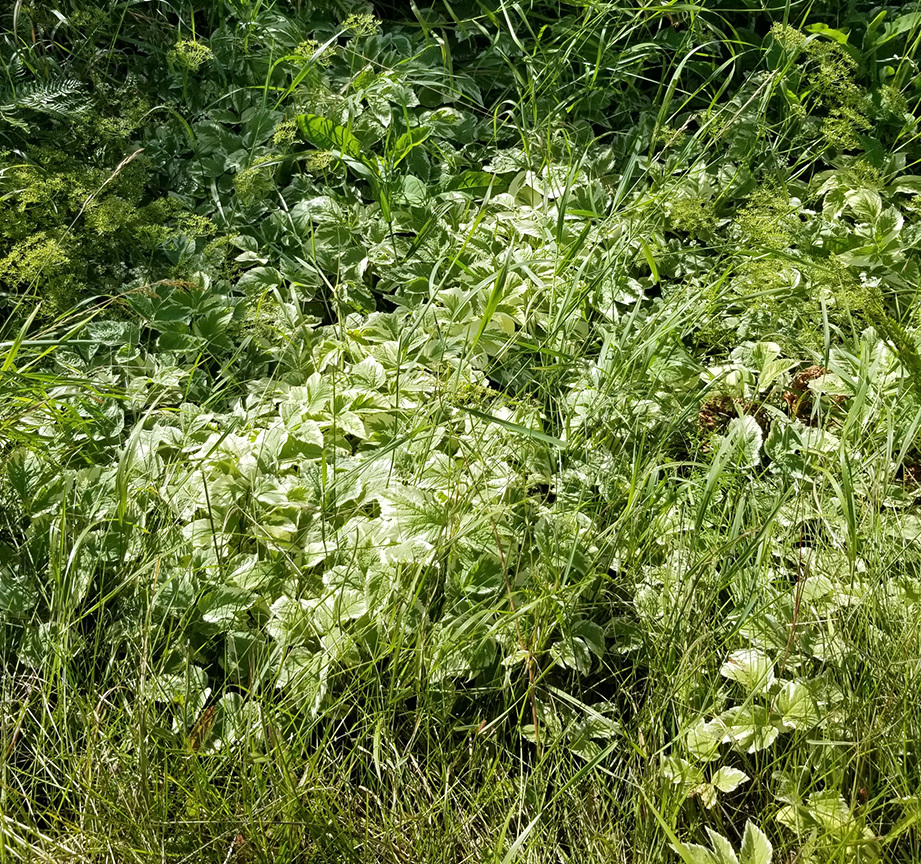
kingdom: Plantae
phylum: Tracheophyta
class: Magnoliopsida
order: Apiales
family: Apiaceae
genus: Aegopodium
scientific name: Aegopodium podagraria
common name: Ground-elder
